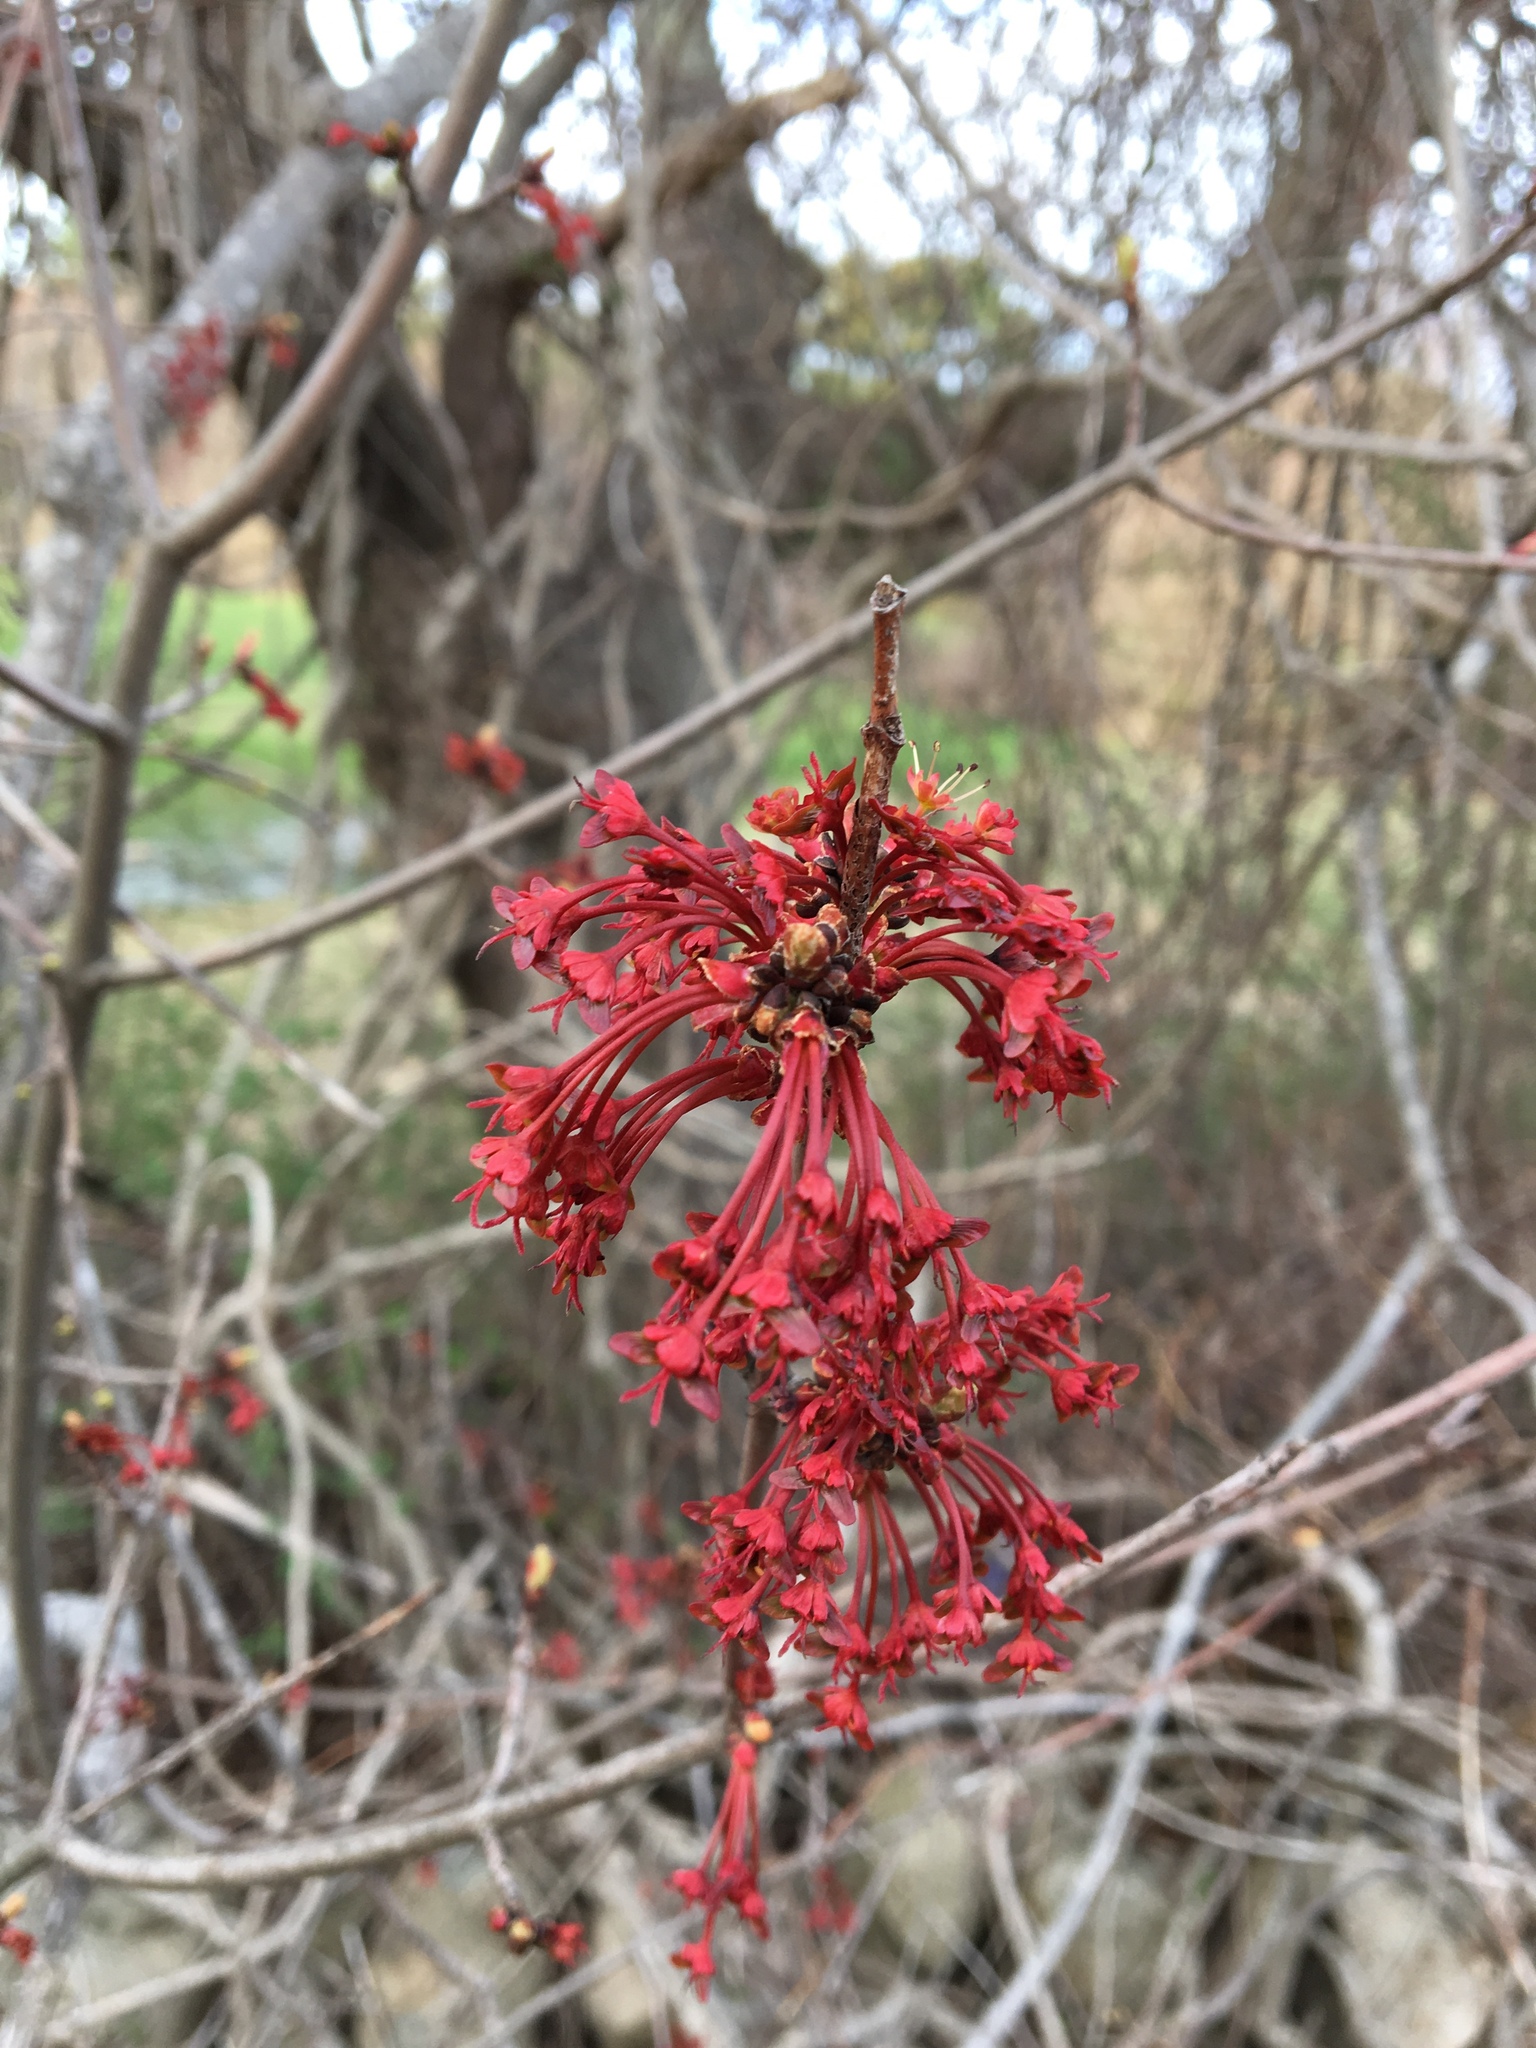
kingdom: Plantae
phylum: Tracheophyta
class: Magnoliopsida
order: Sapindales
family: Sapindaceae
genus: Acer
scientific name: Acer rubrum
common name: Red maple
